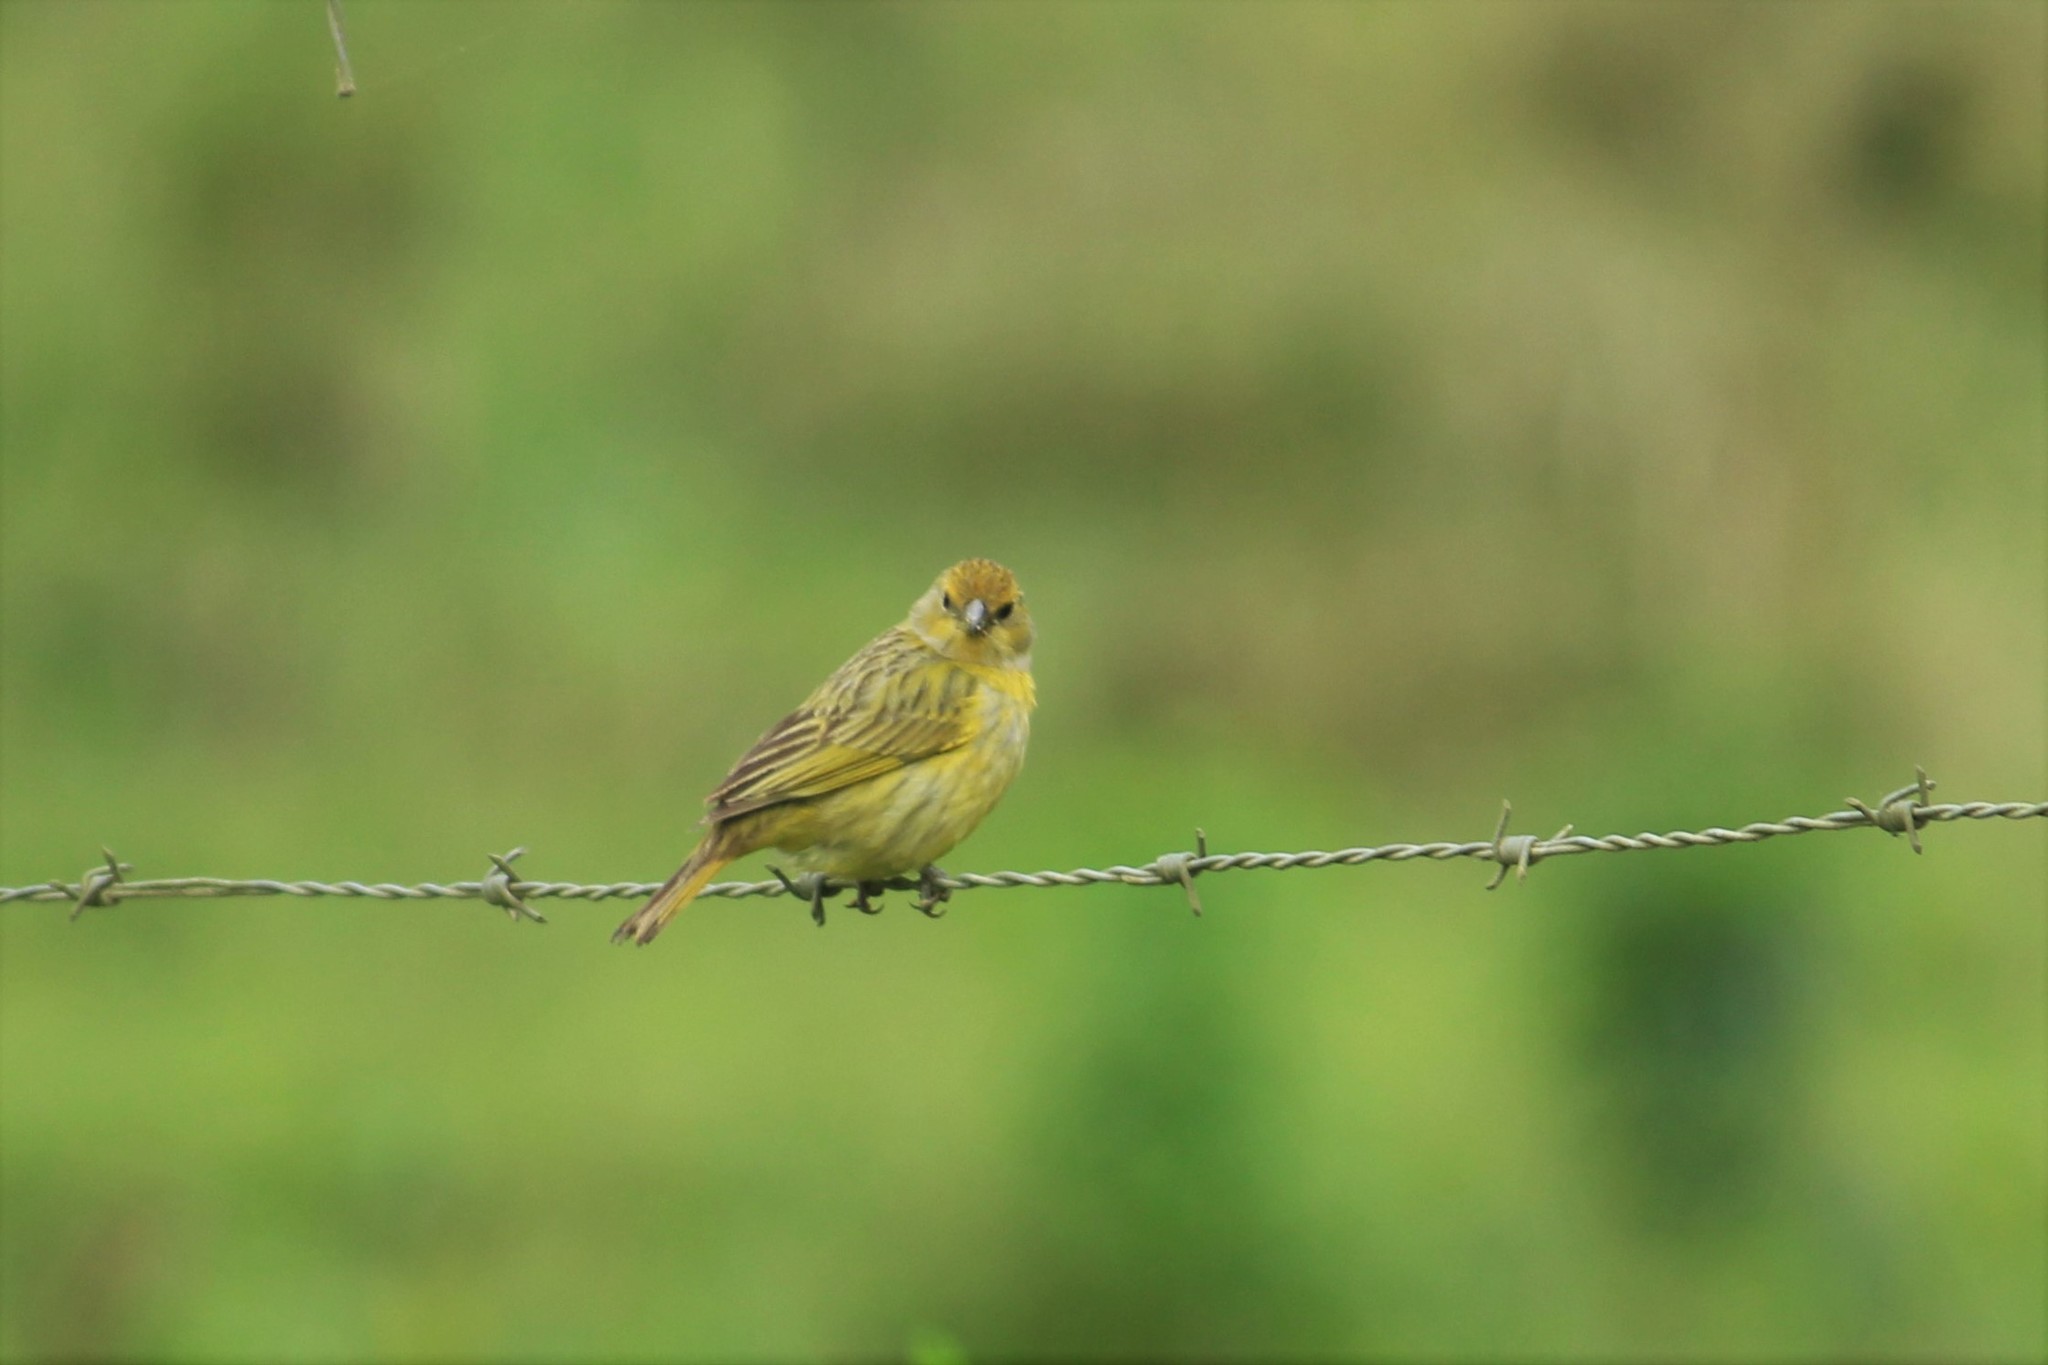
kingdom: Animalia
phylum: Chordata
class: Aves
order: Passeriformes
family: Thraupidae
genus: Sicalis
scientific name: Sicalis flaveola
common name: Saffron finch
